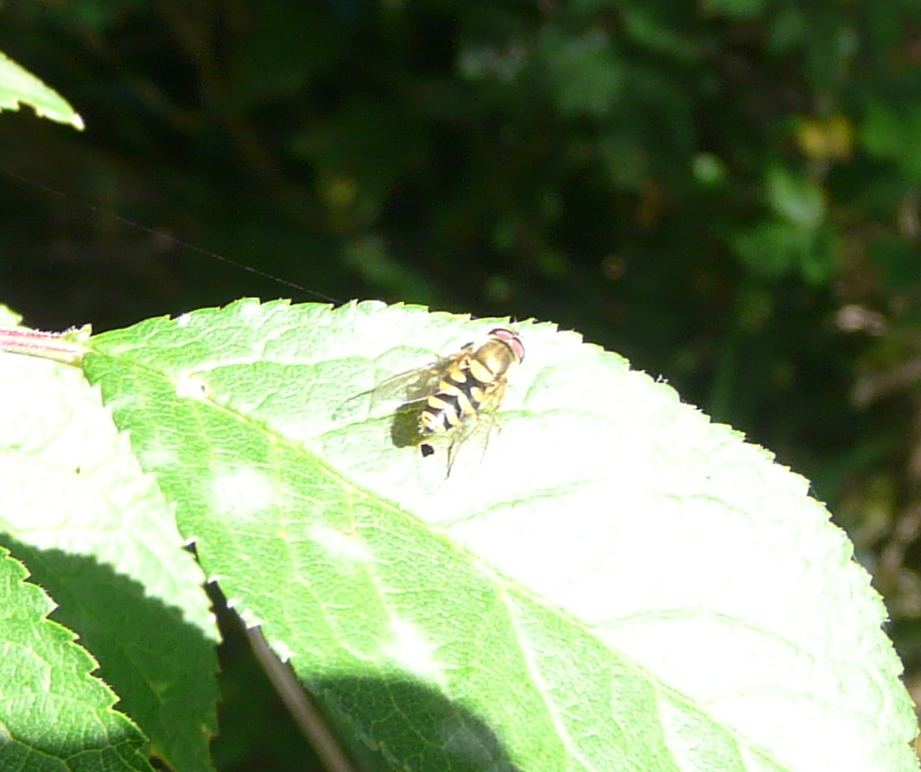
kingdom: Animalia
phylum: Arthropoda
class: Insecta
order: Diptera
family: Syrphidae
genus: Syrphus
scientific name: Syrphus
